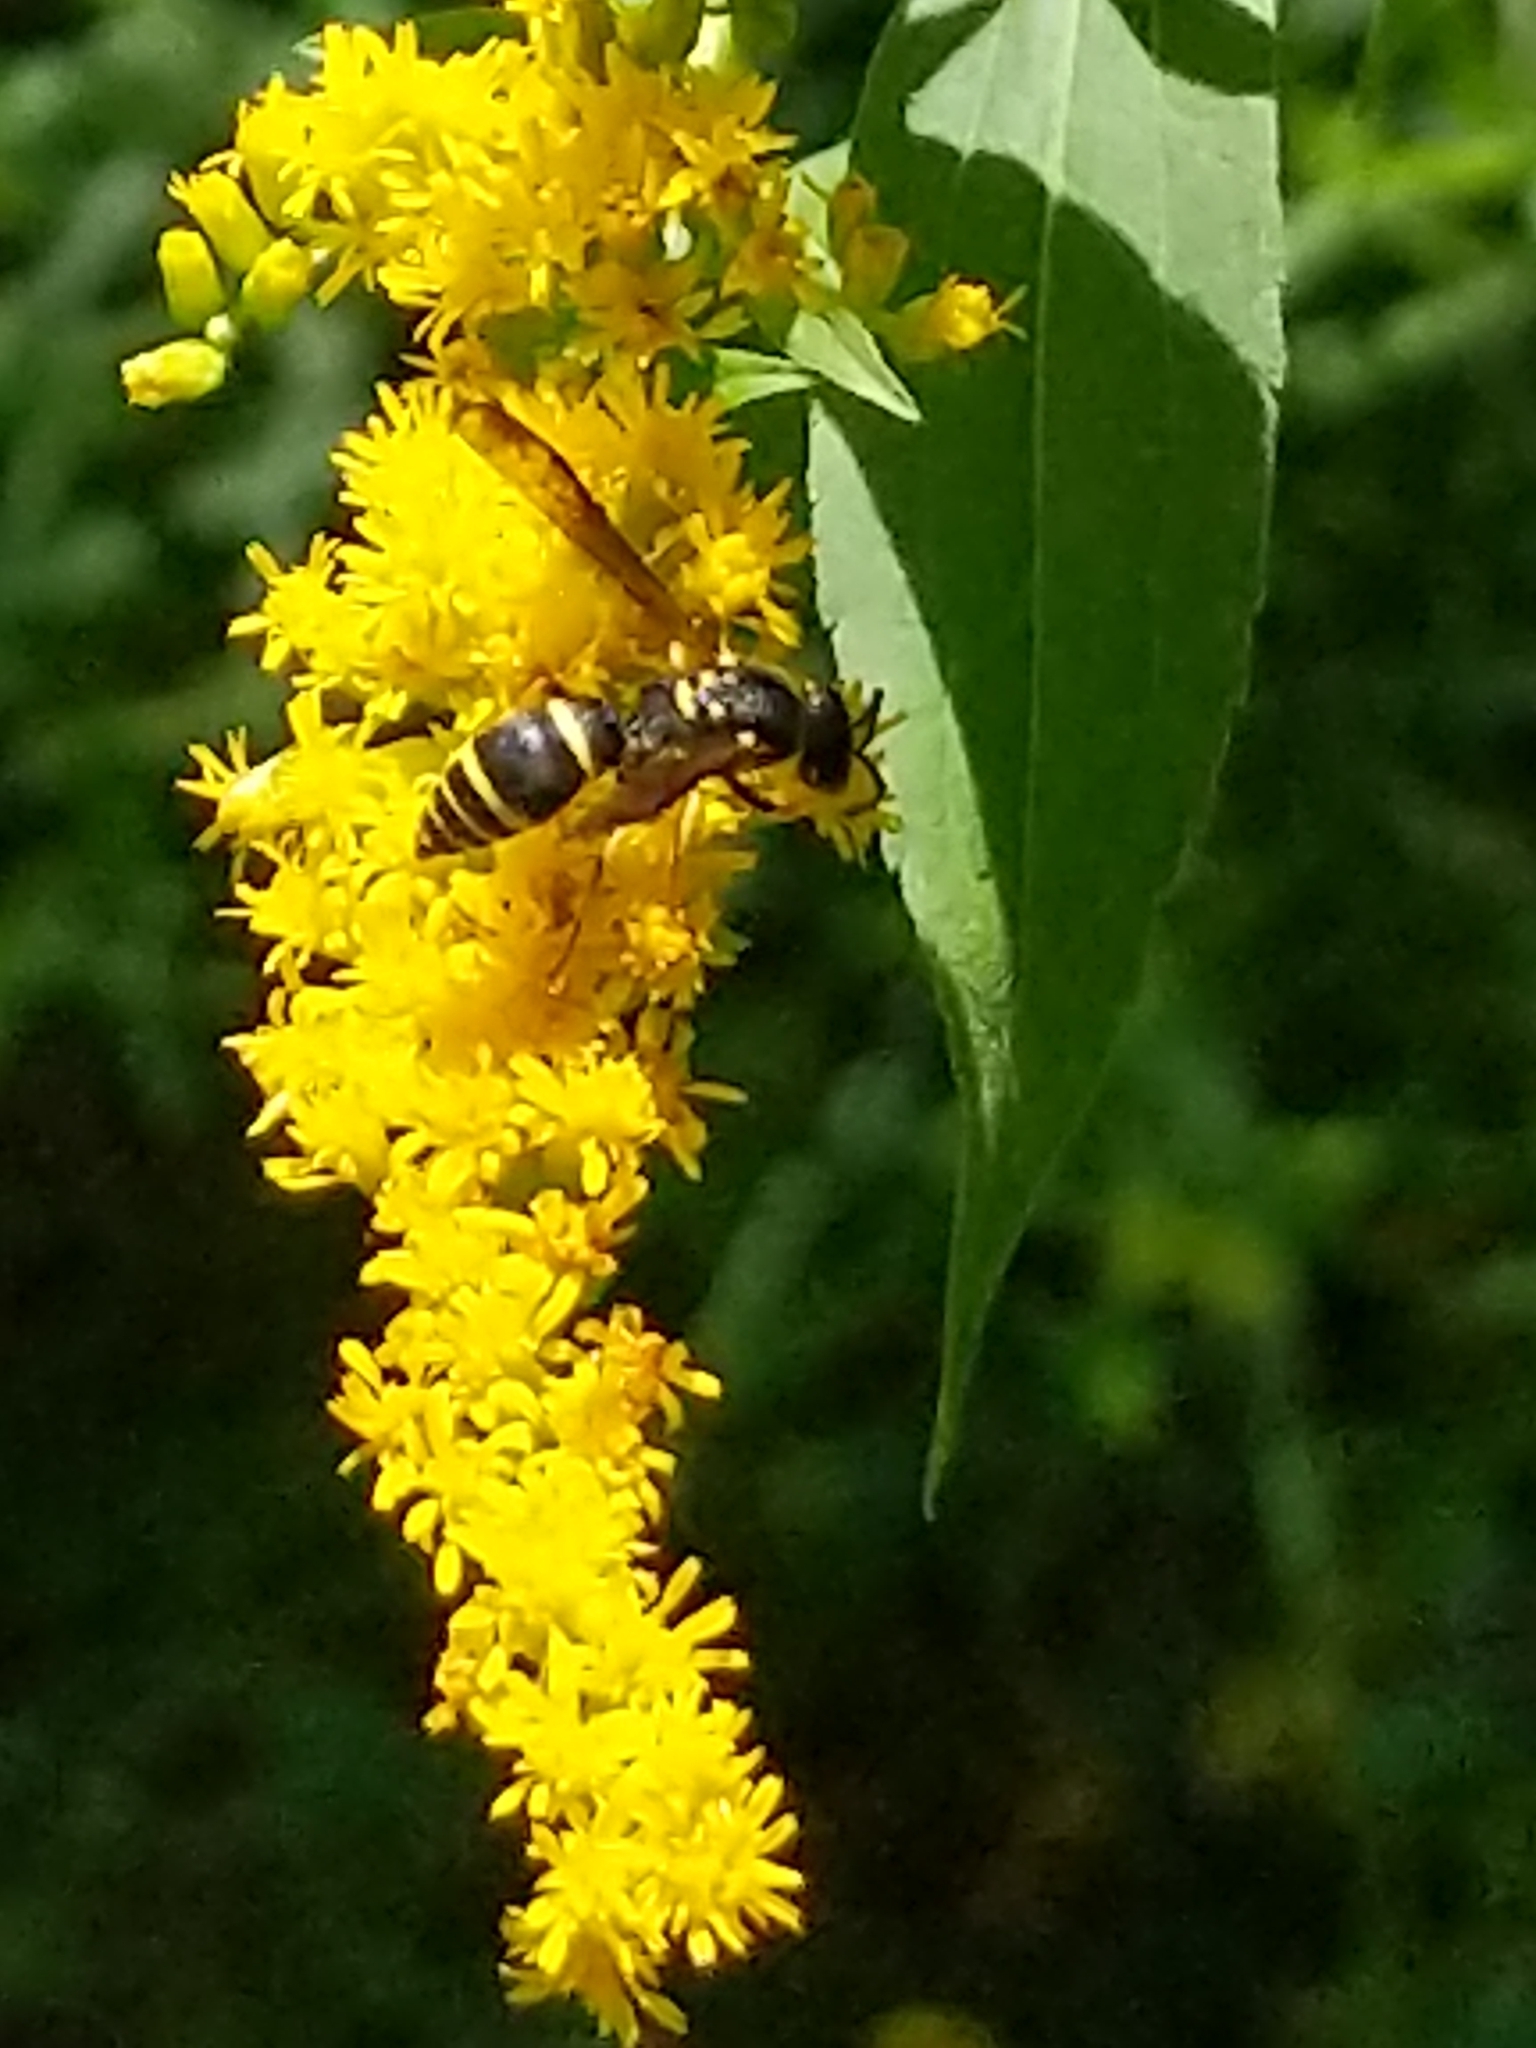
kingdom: Animalia
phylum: Arthropoda
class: Insecta
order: Hymenoptera
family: Vespidae
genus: Ancistrocerus
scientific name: Ancistrocerus adiabatus
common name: Bramble mason wasp
